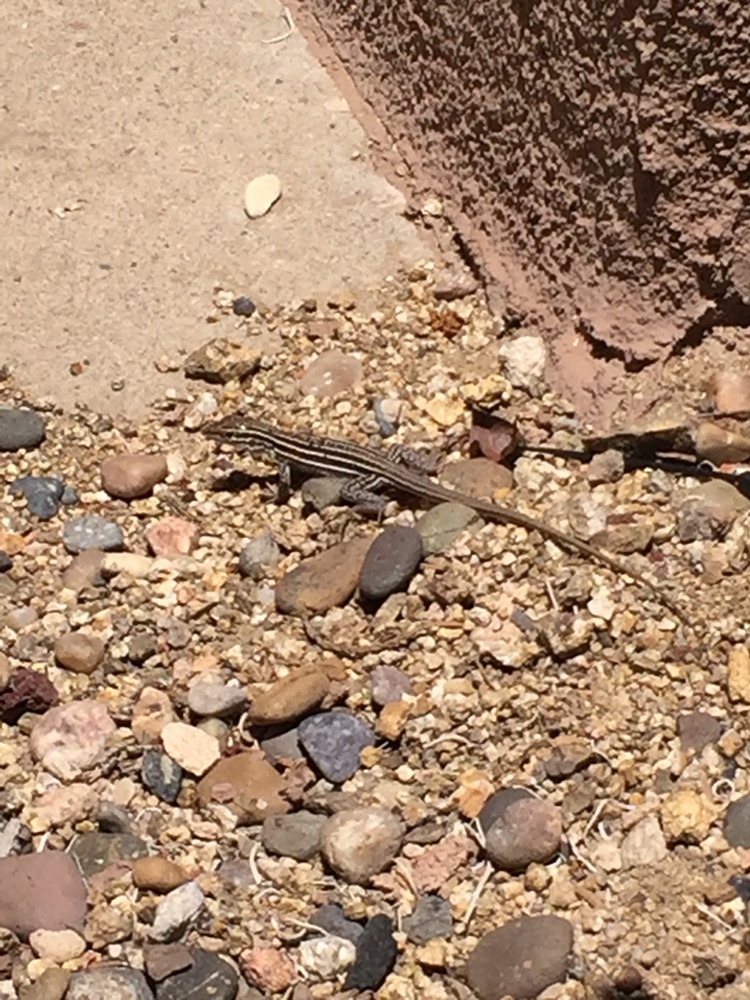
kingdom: Animalia
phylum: Chordata
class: Squamata
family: Teiidae
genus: Aspidoscelis
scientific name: Aspidoscelis
